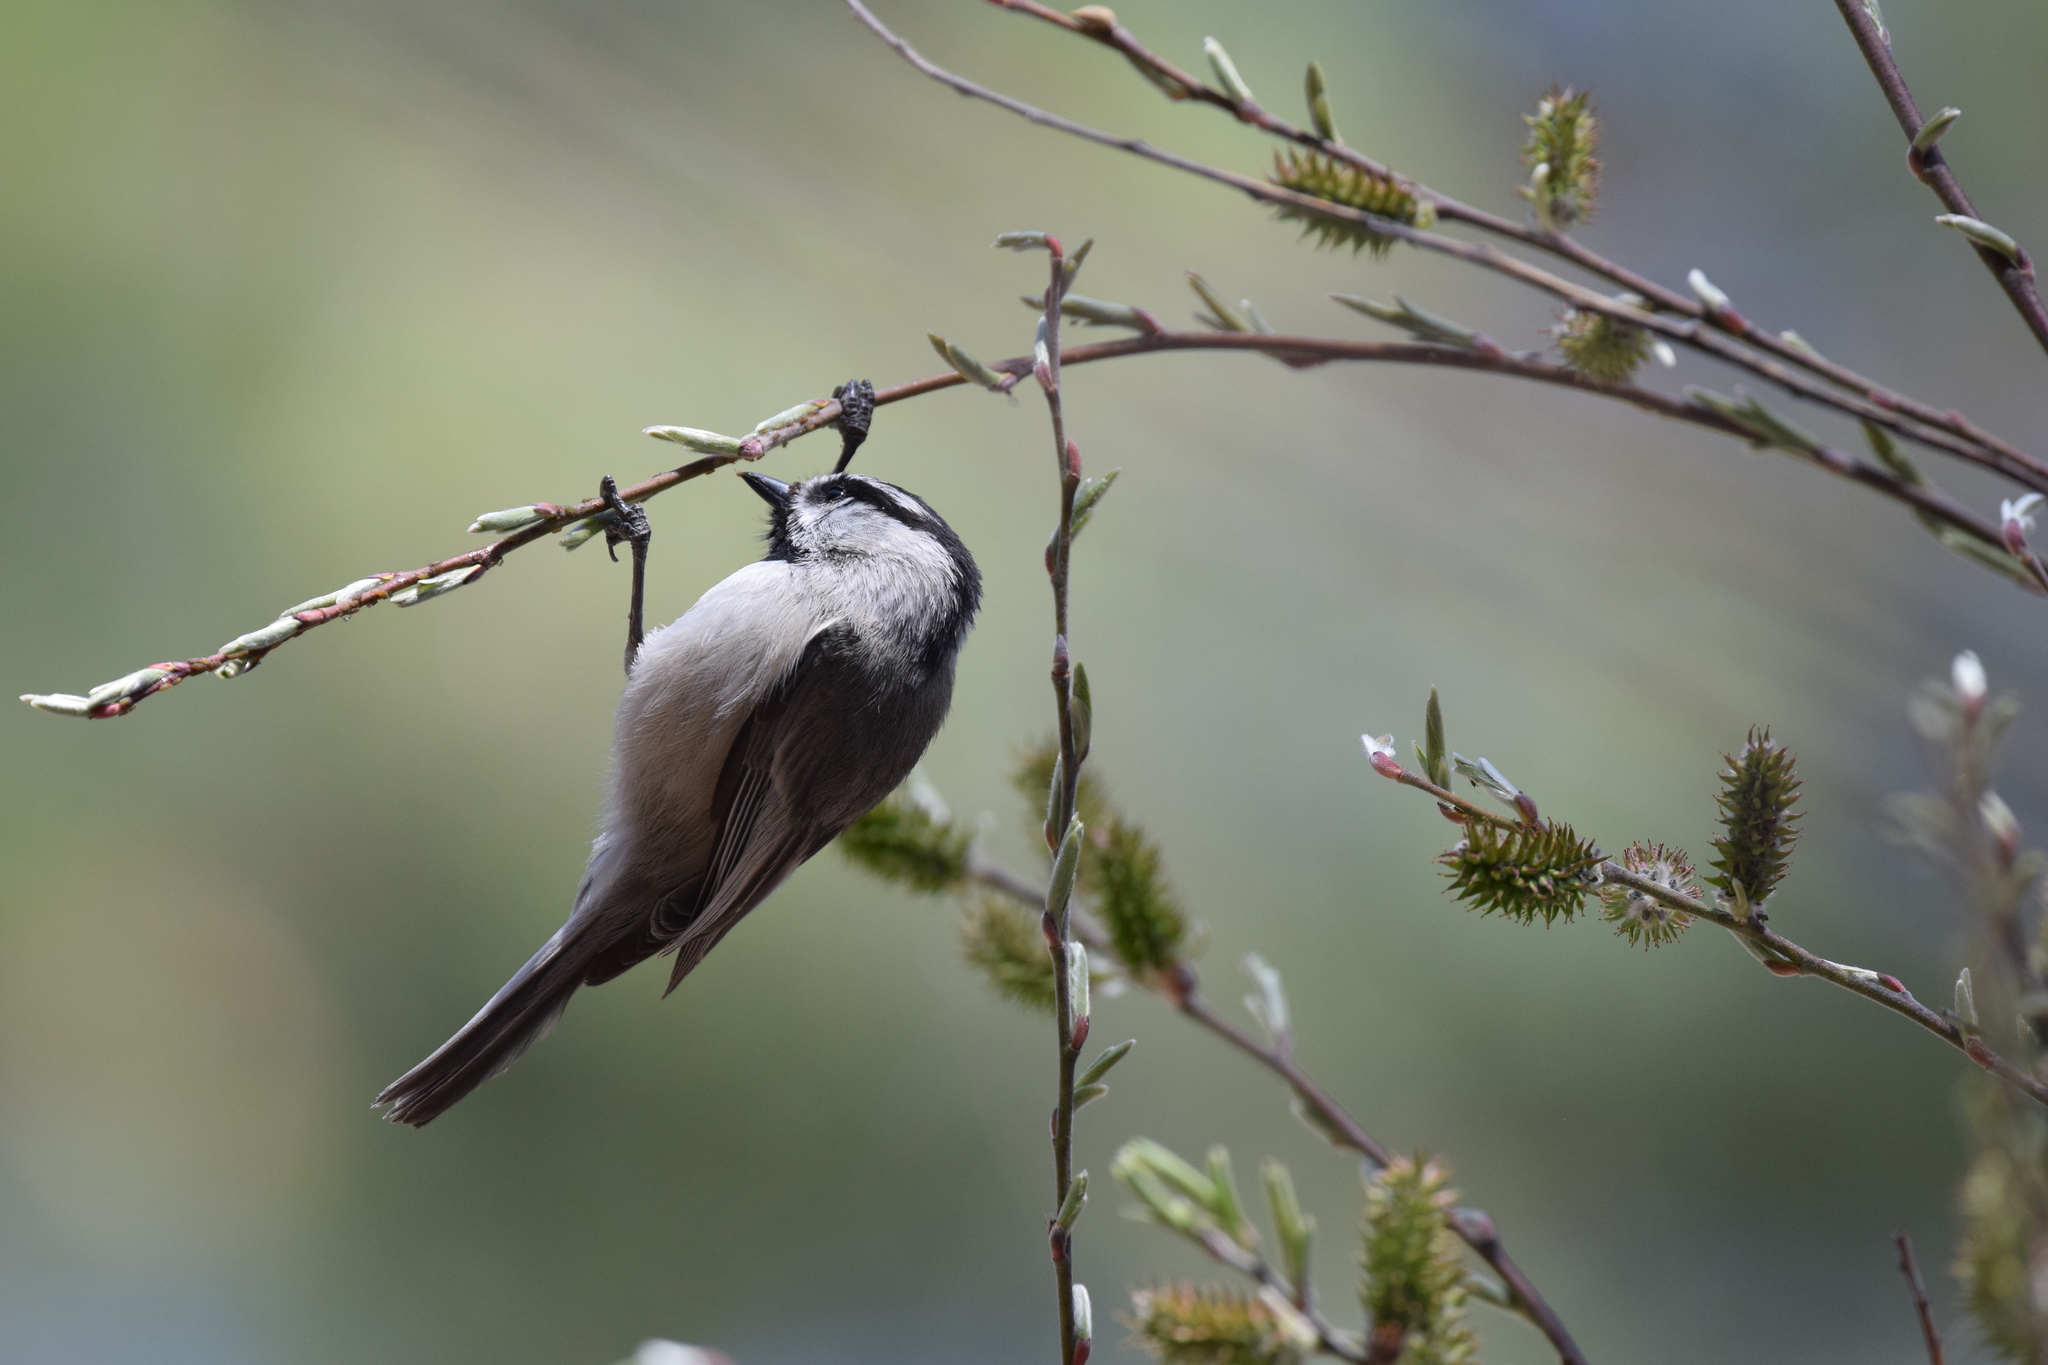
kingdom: Animalia
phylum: Chordata
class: Aves
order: Passeriformes
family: Paridae
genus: Poecile
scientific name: Poecile gambeli
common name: Mountain chickadee
